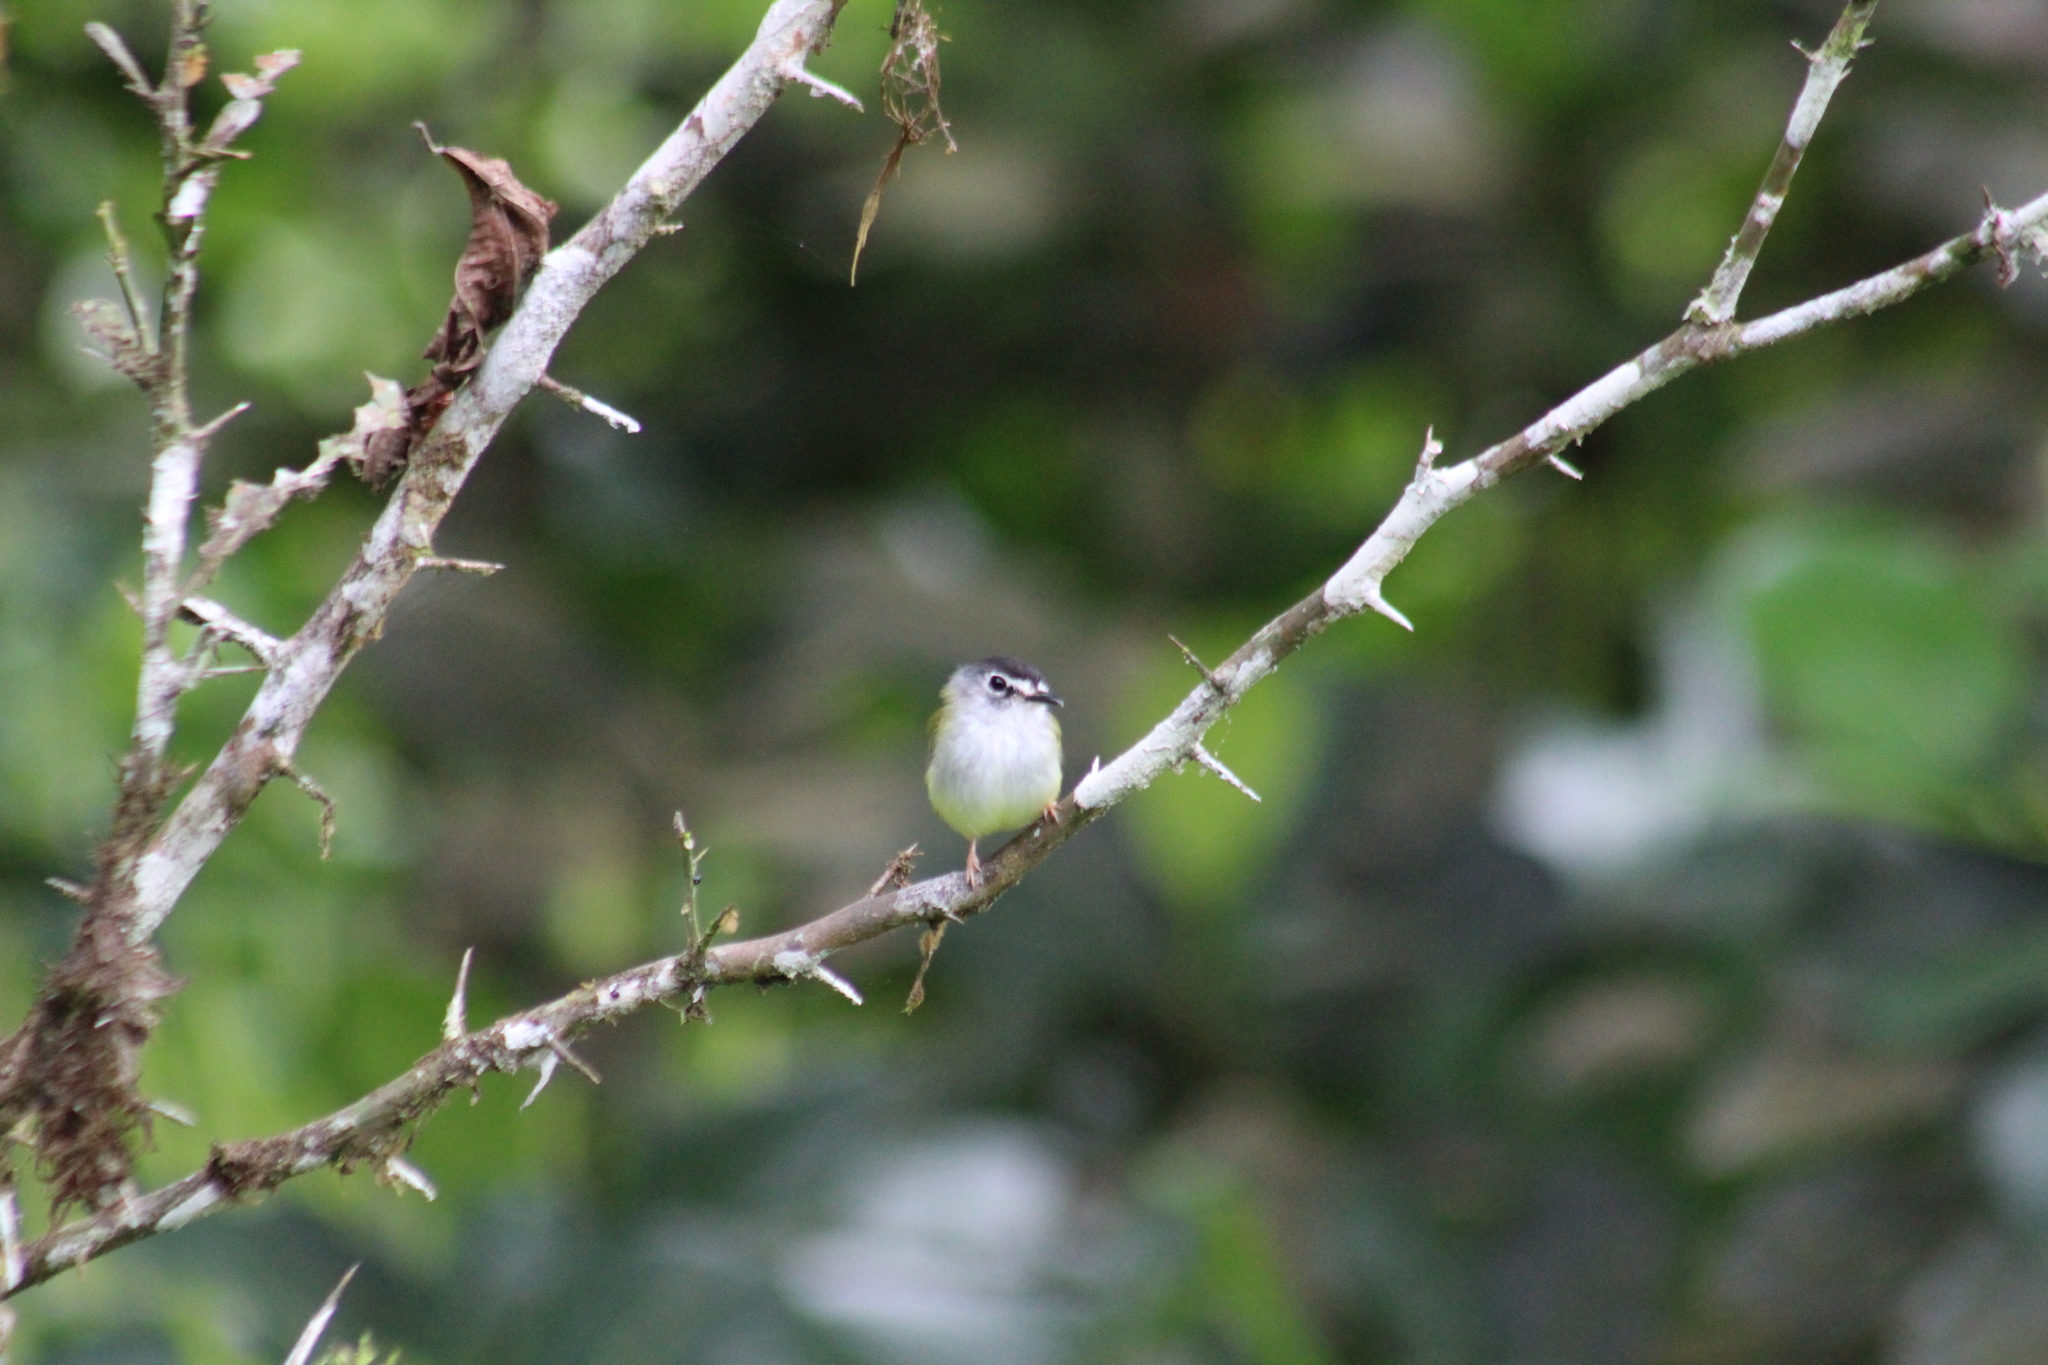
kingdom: Animalia
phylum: Chordata
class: Aves
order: Passeriformes
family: Tyrannidae
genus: Myiornis
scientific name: Myiornis atricapillus
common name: Black-capped pygmy-tyrant
